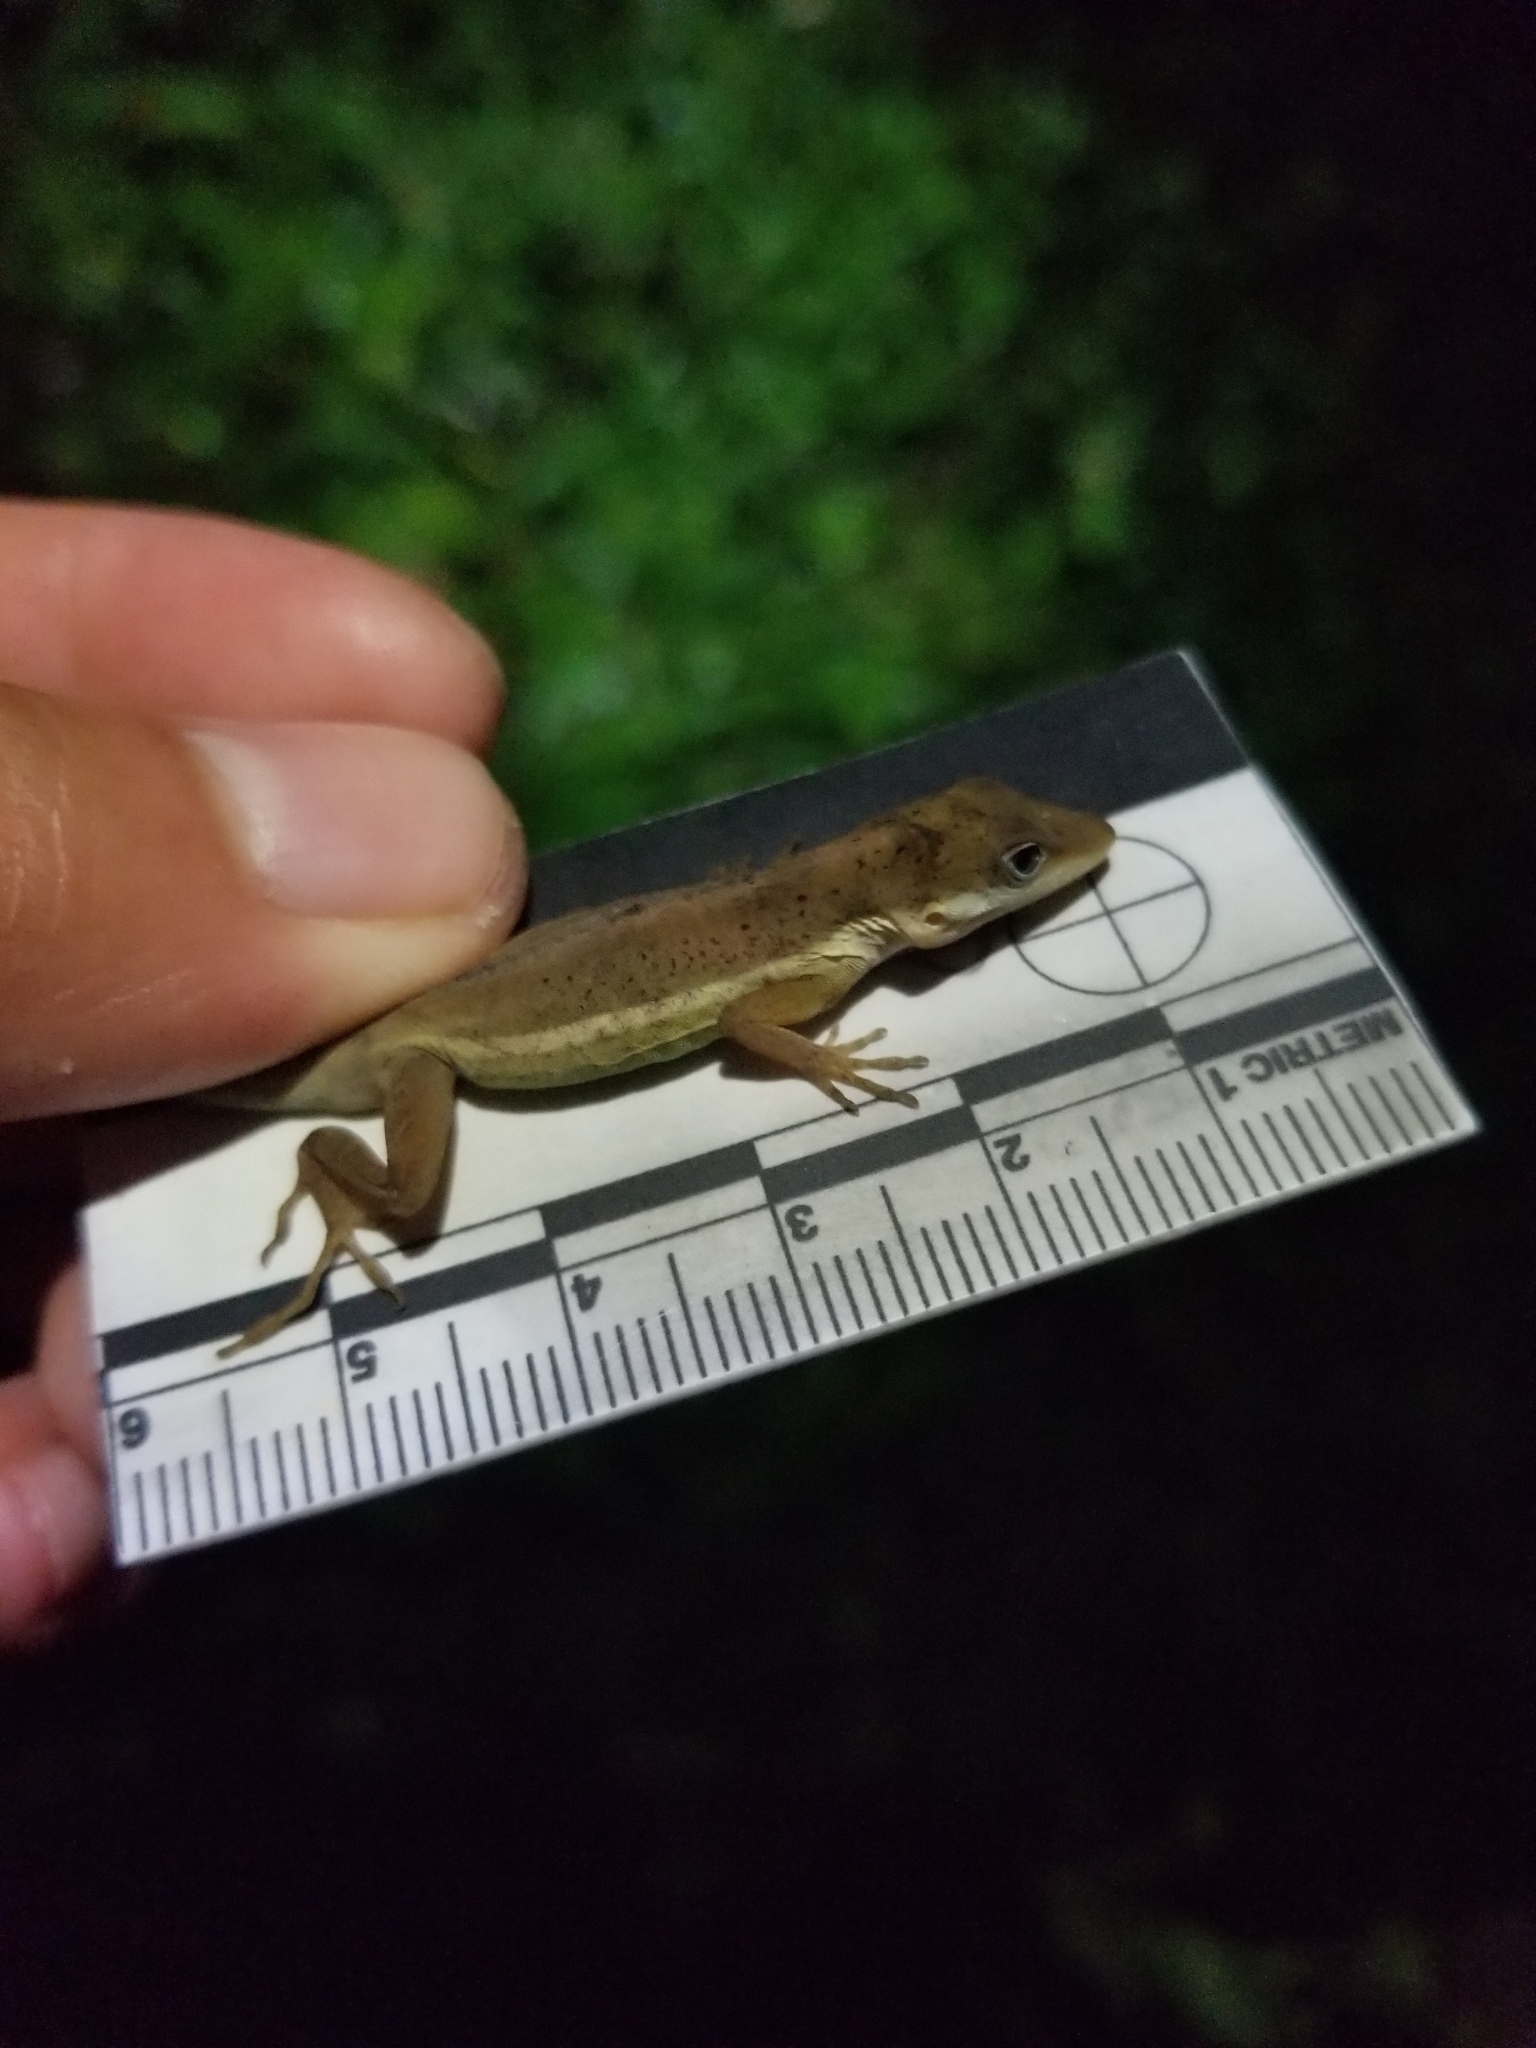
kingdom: Animalia
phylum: Chordata
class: Squamata
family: Dactyloidae
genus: Anolis
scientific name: Anolis krugi
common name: Krug's anole
